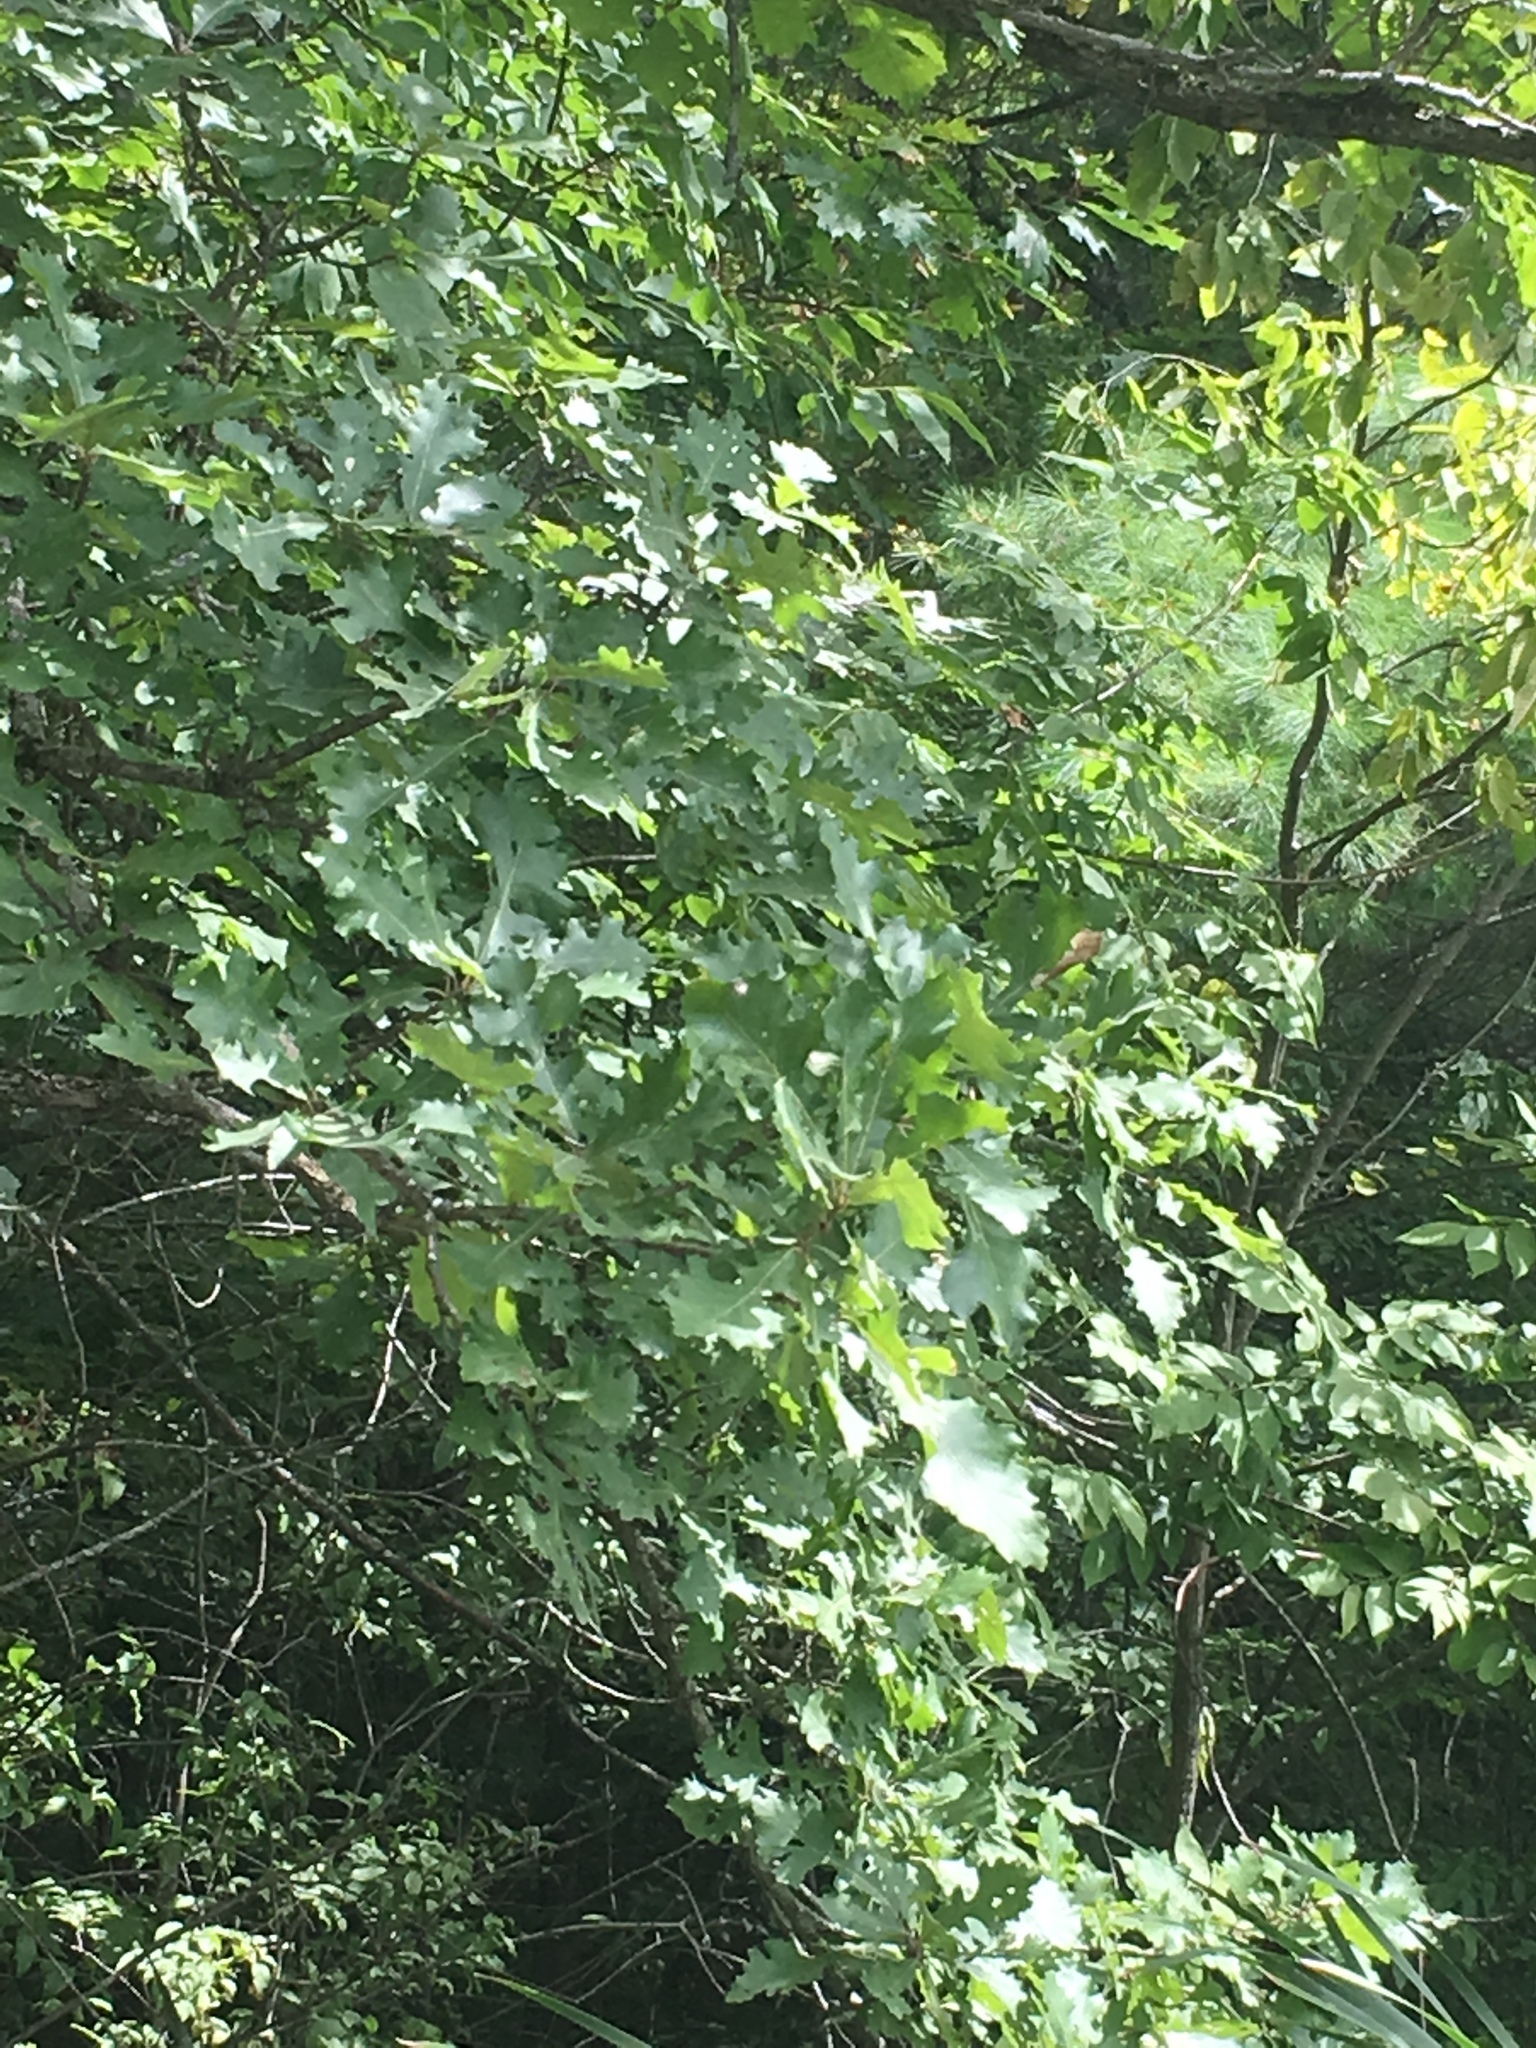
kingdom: Plantae
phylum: Tracheophyta
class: Magnoliopsida
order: Fagales
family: Fagaceae
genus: Quercus
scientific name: Quercus macrocarpa
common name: Bur oak
